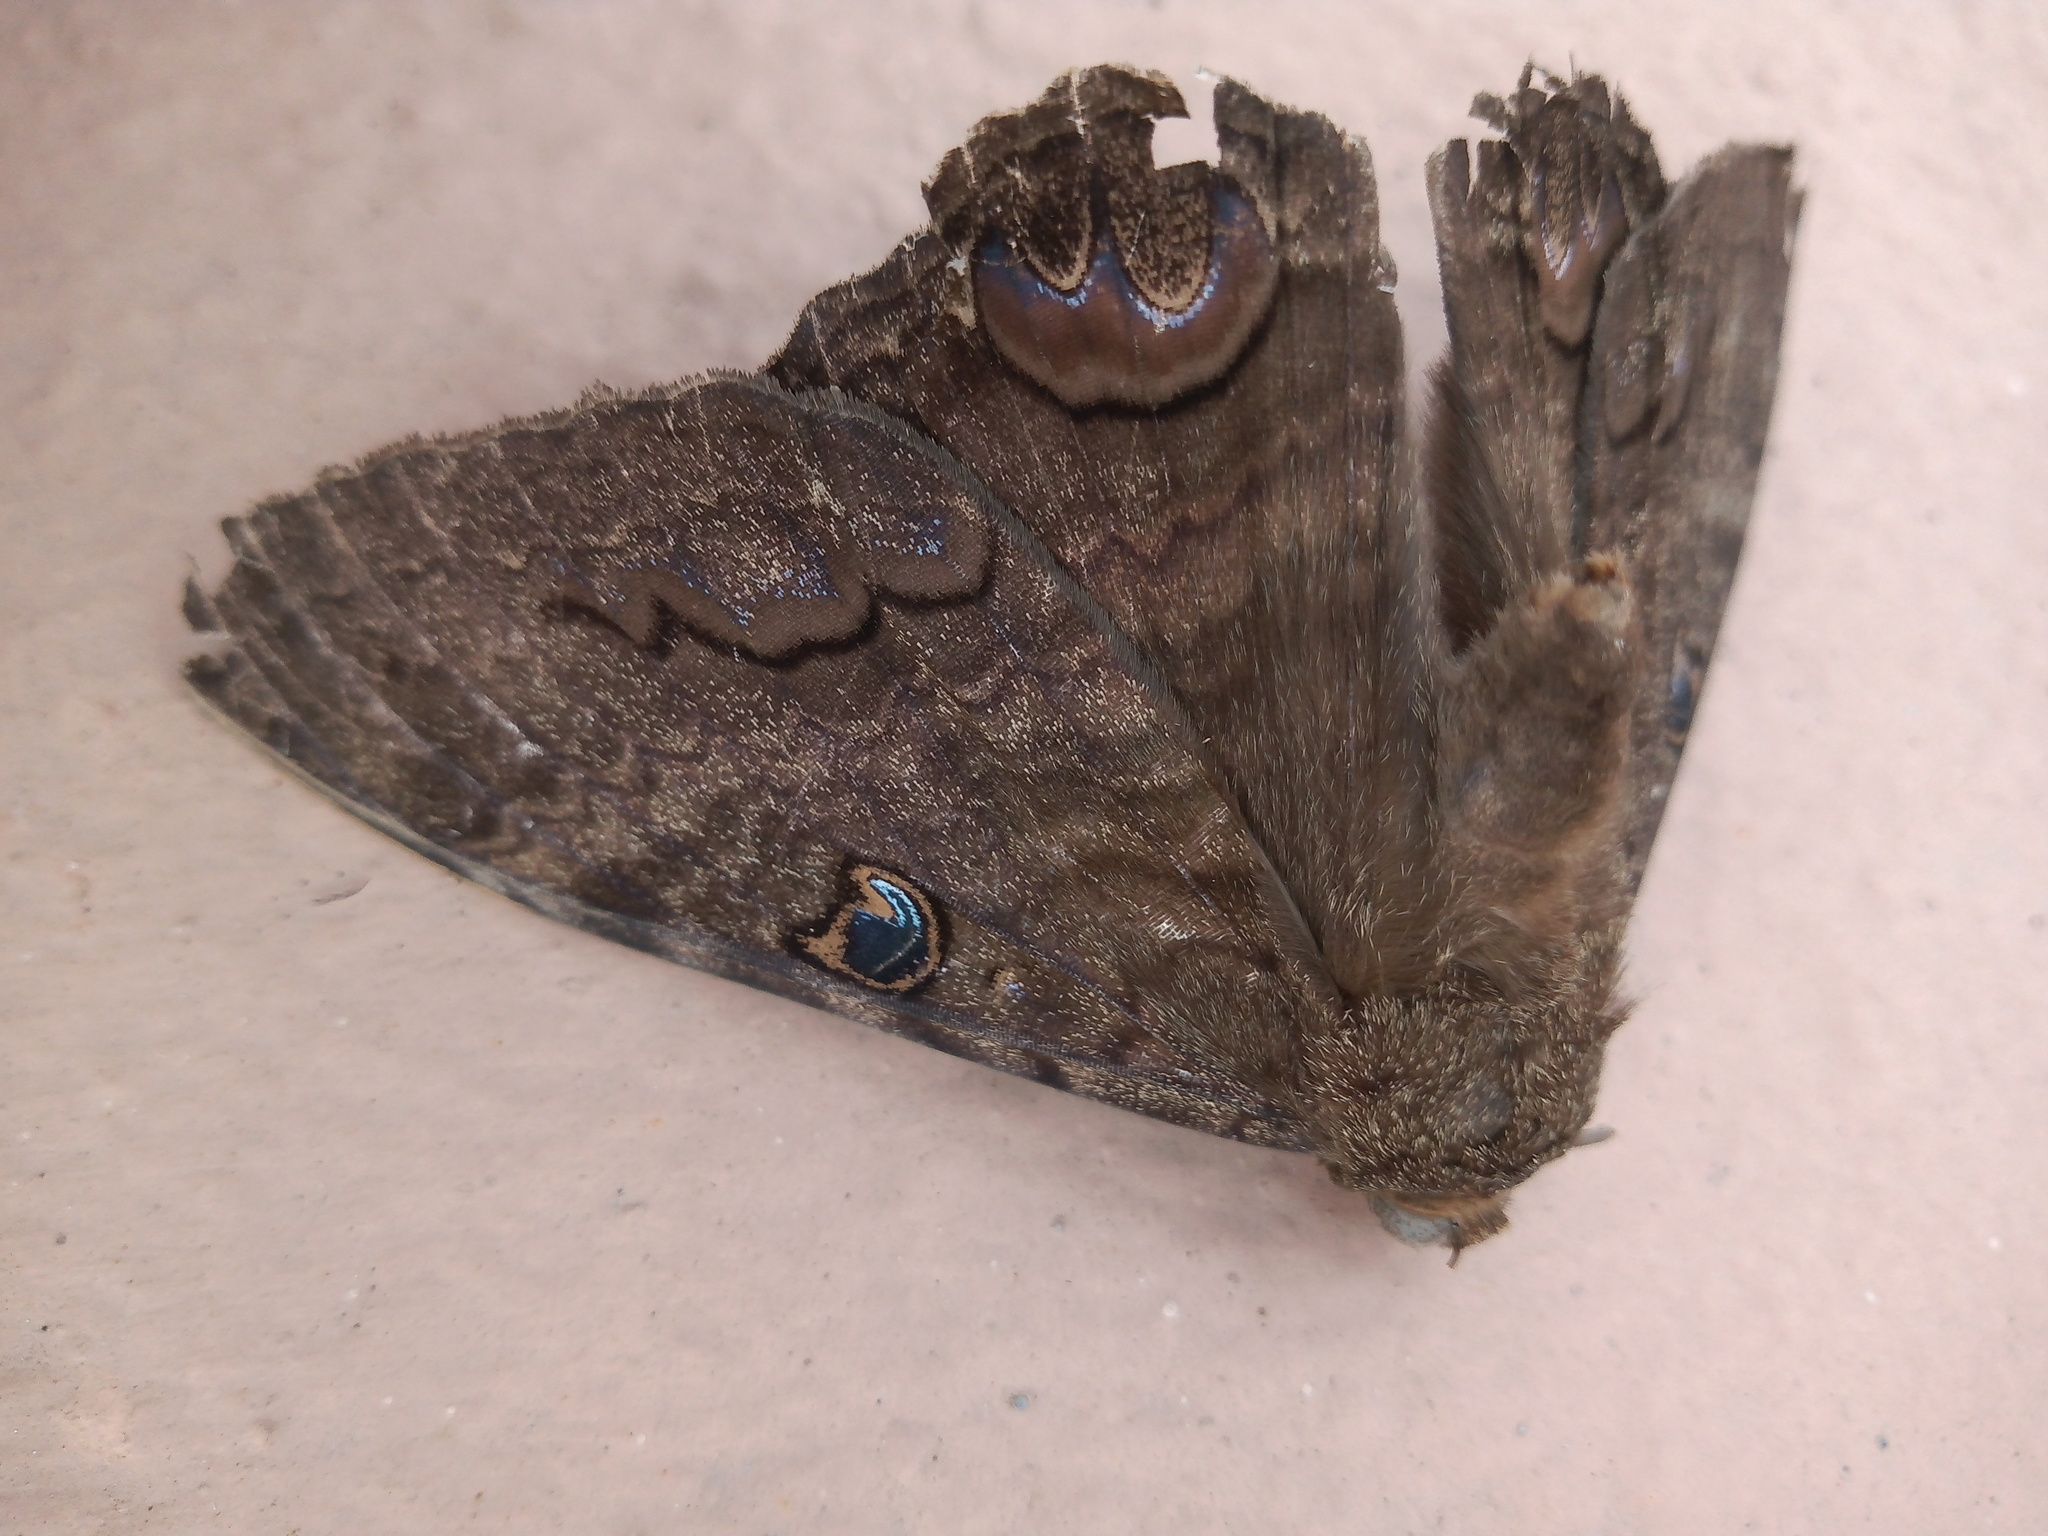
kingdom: Animalia
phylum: Arthropoda
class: Insecta
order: Lepidoptera
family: Erebidae
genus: Ascalapha
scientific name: Ascalapha odorata
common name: Black witch
